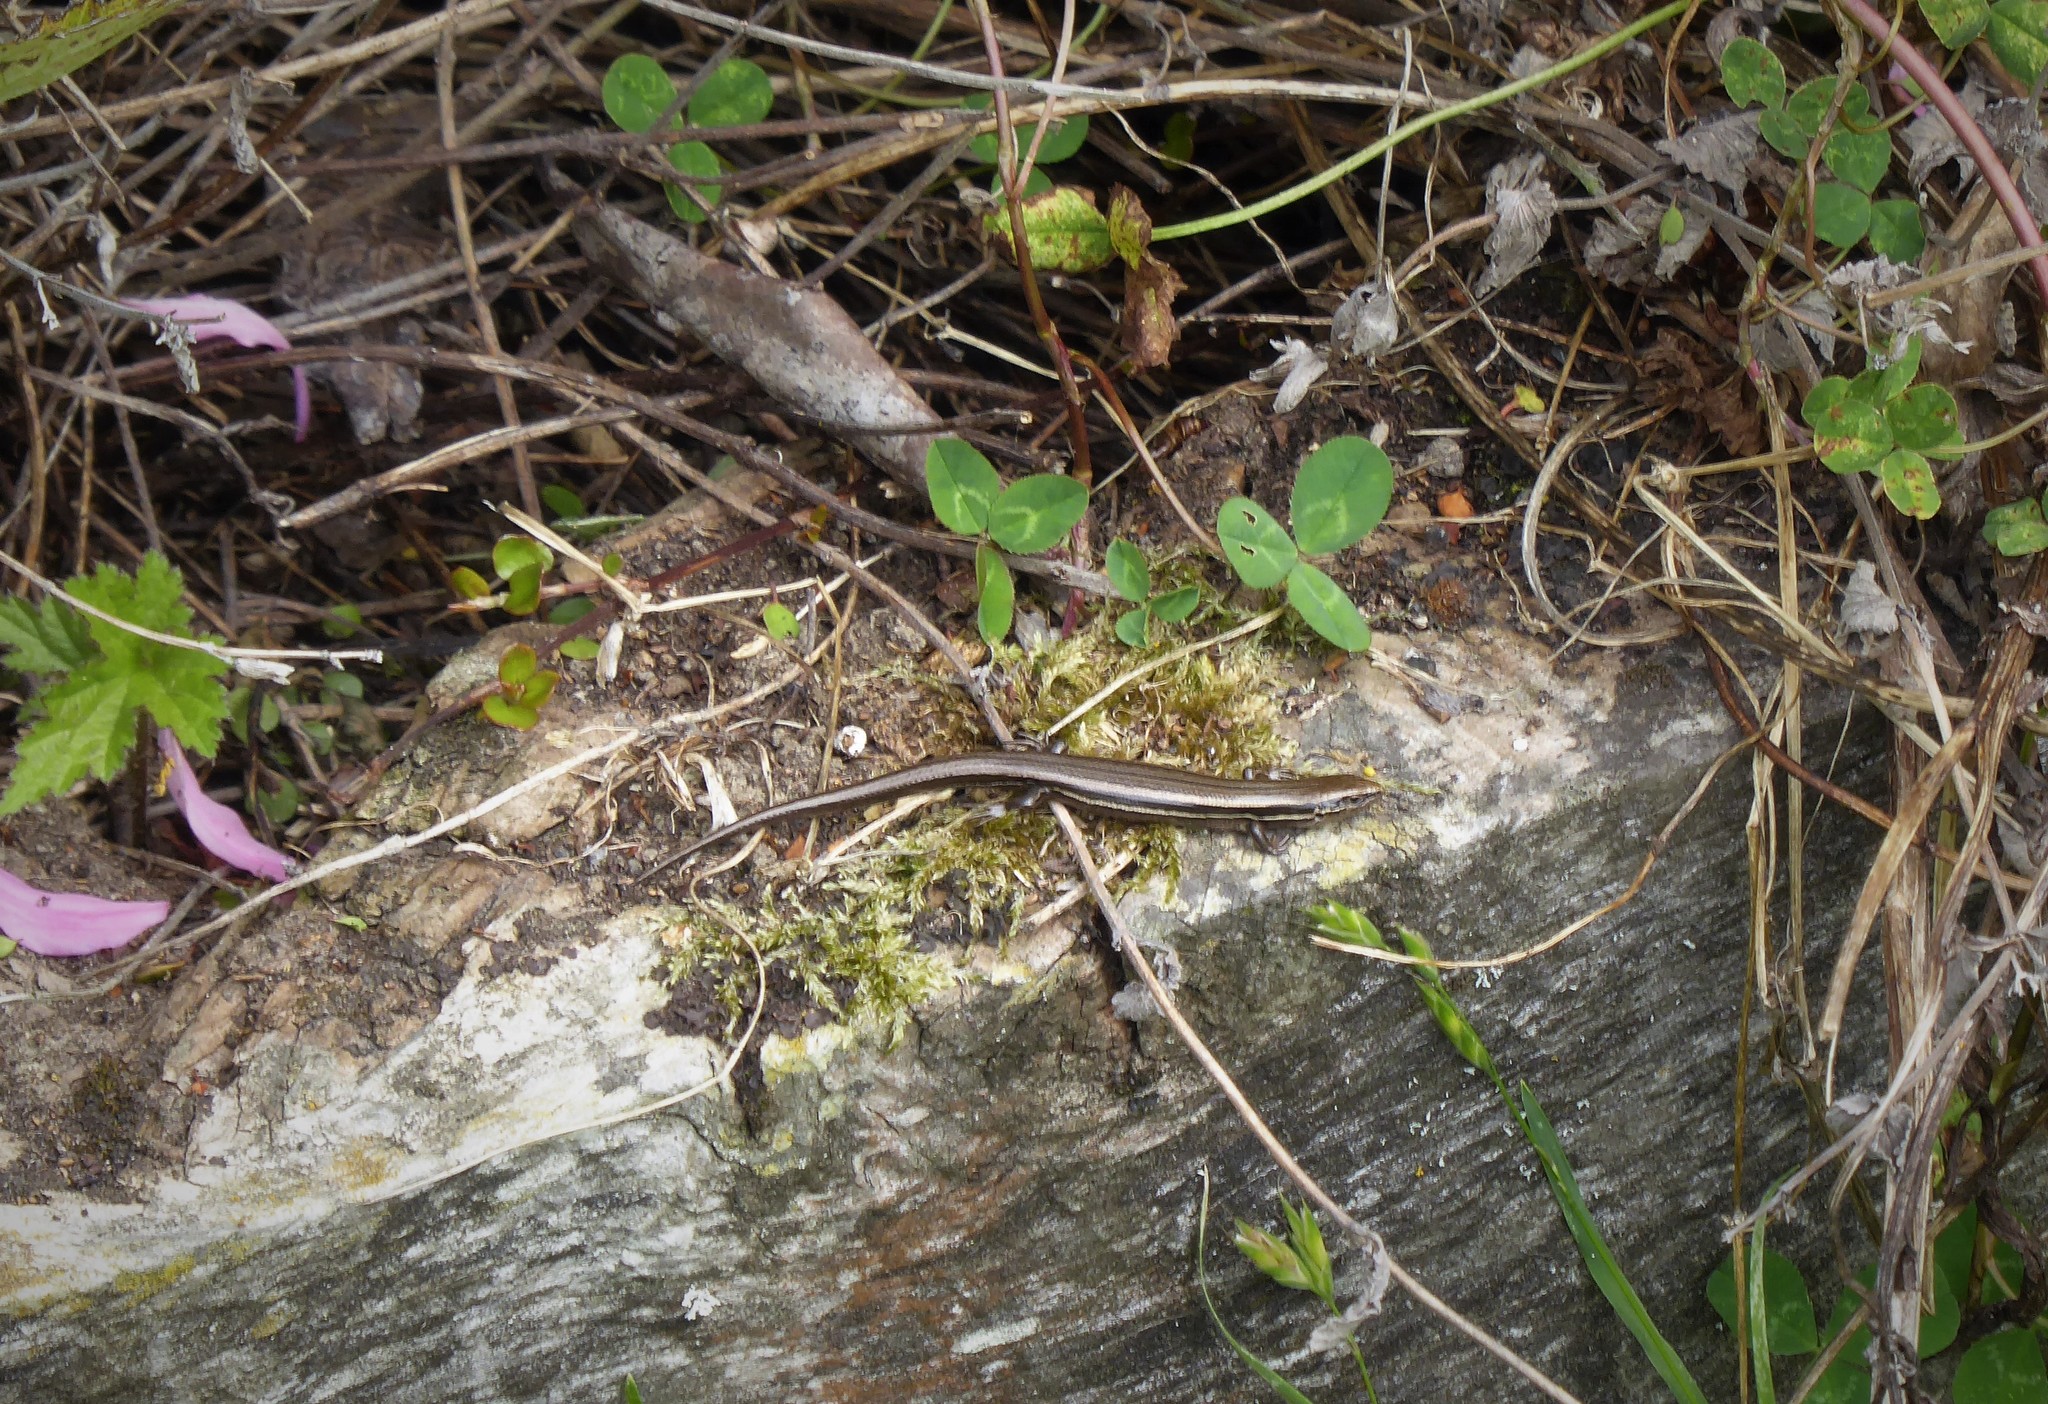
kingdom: Animalia
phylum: Chordata
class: Squamata
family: Scincidae
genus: Oligosoma
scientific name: Oligosoma polychroma
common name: Common new zealand skink
